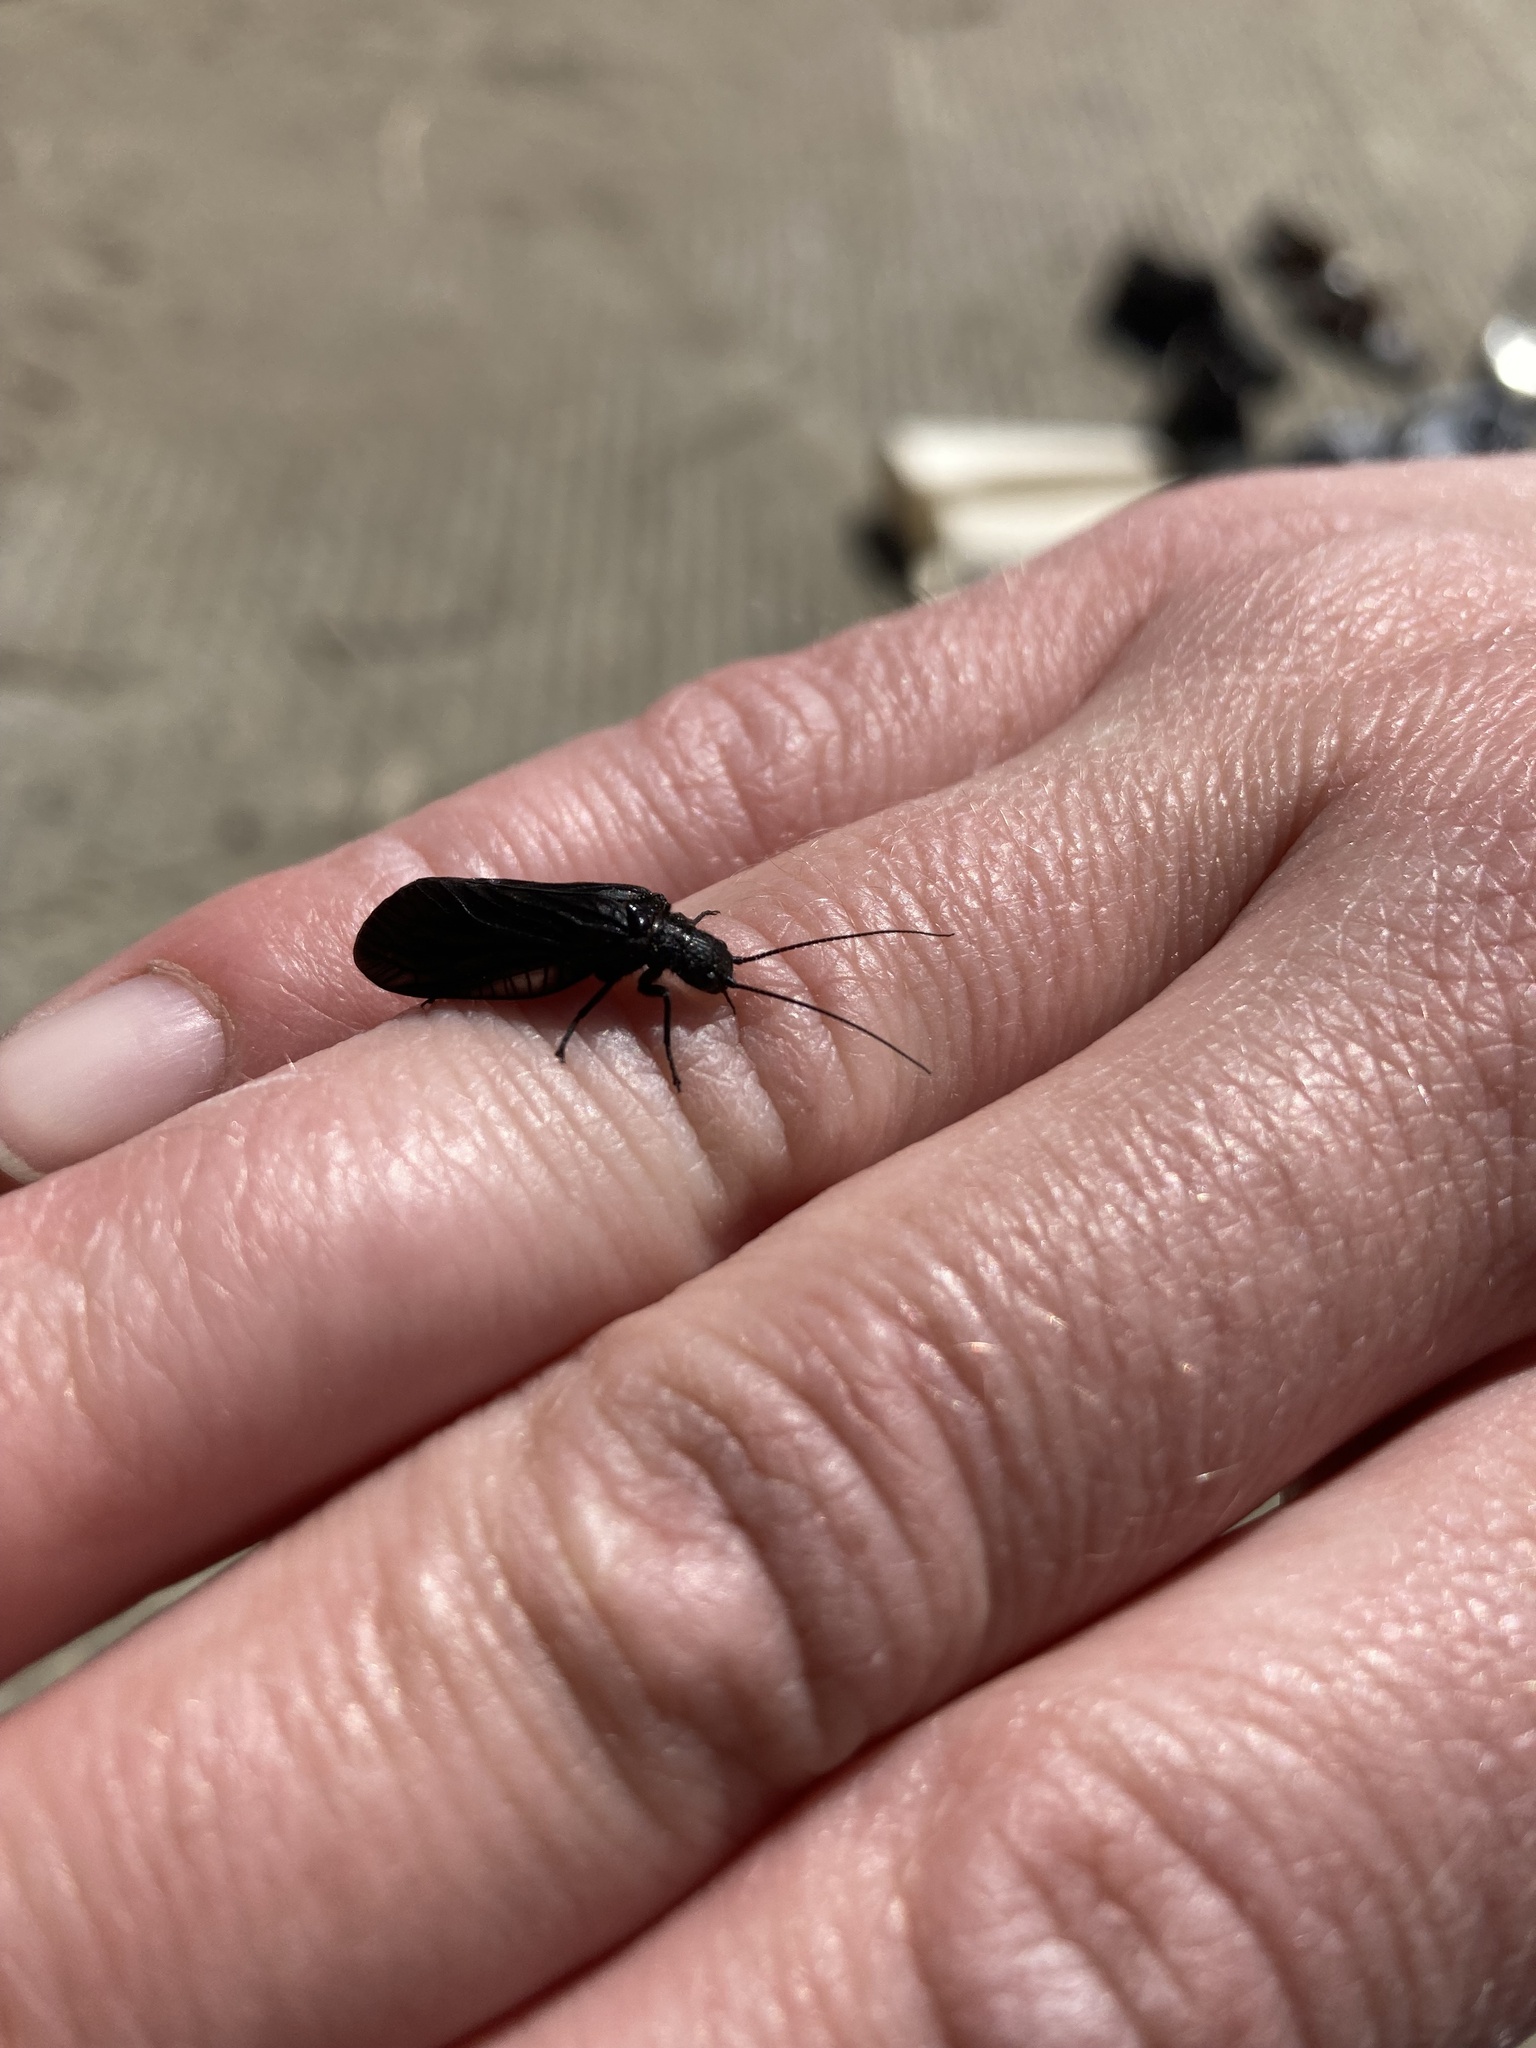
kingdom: Animalia
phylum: Arthropoda
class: Insecta
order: Megaloptera
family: Sialidae
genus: Sialis
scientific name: Sialis
